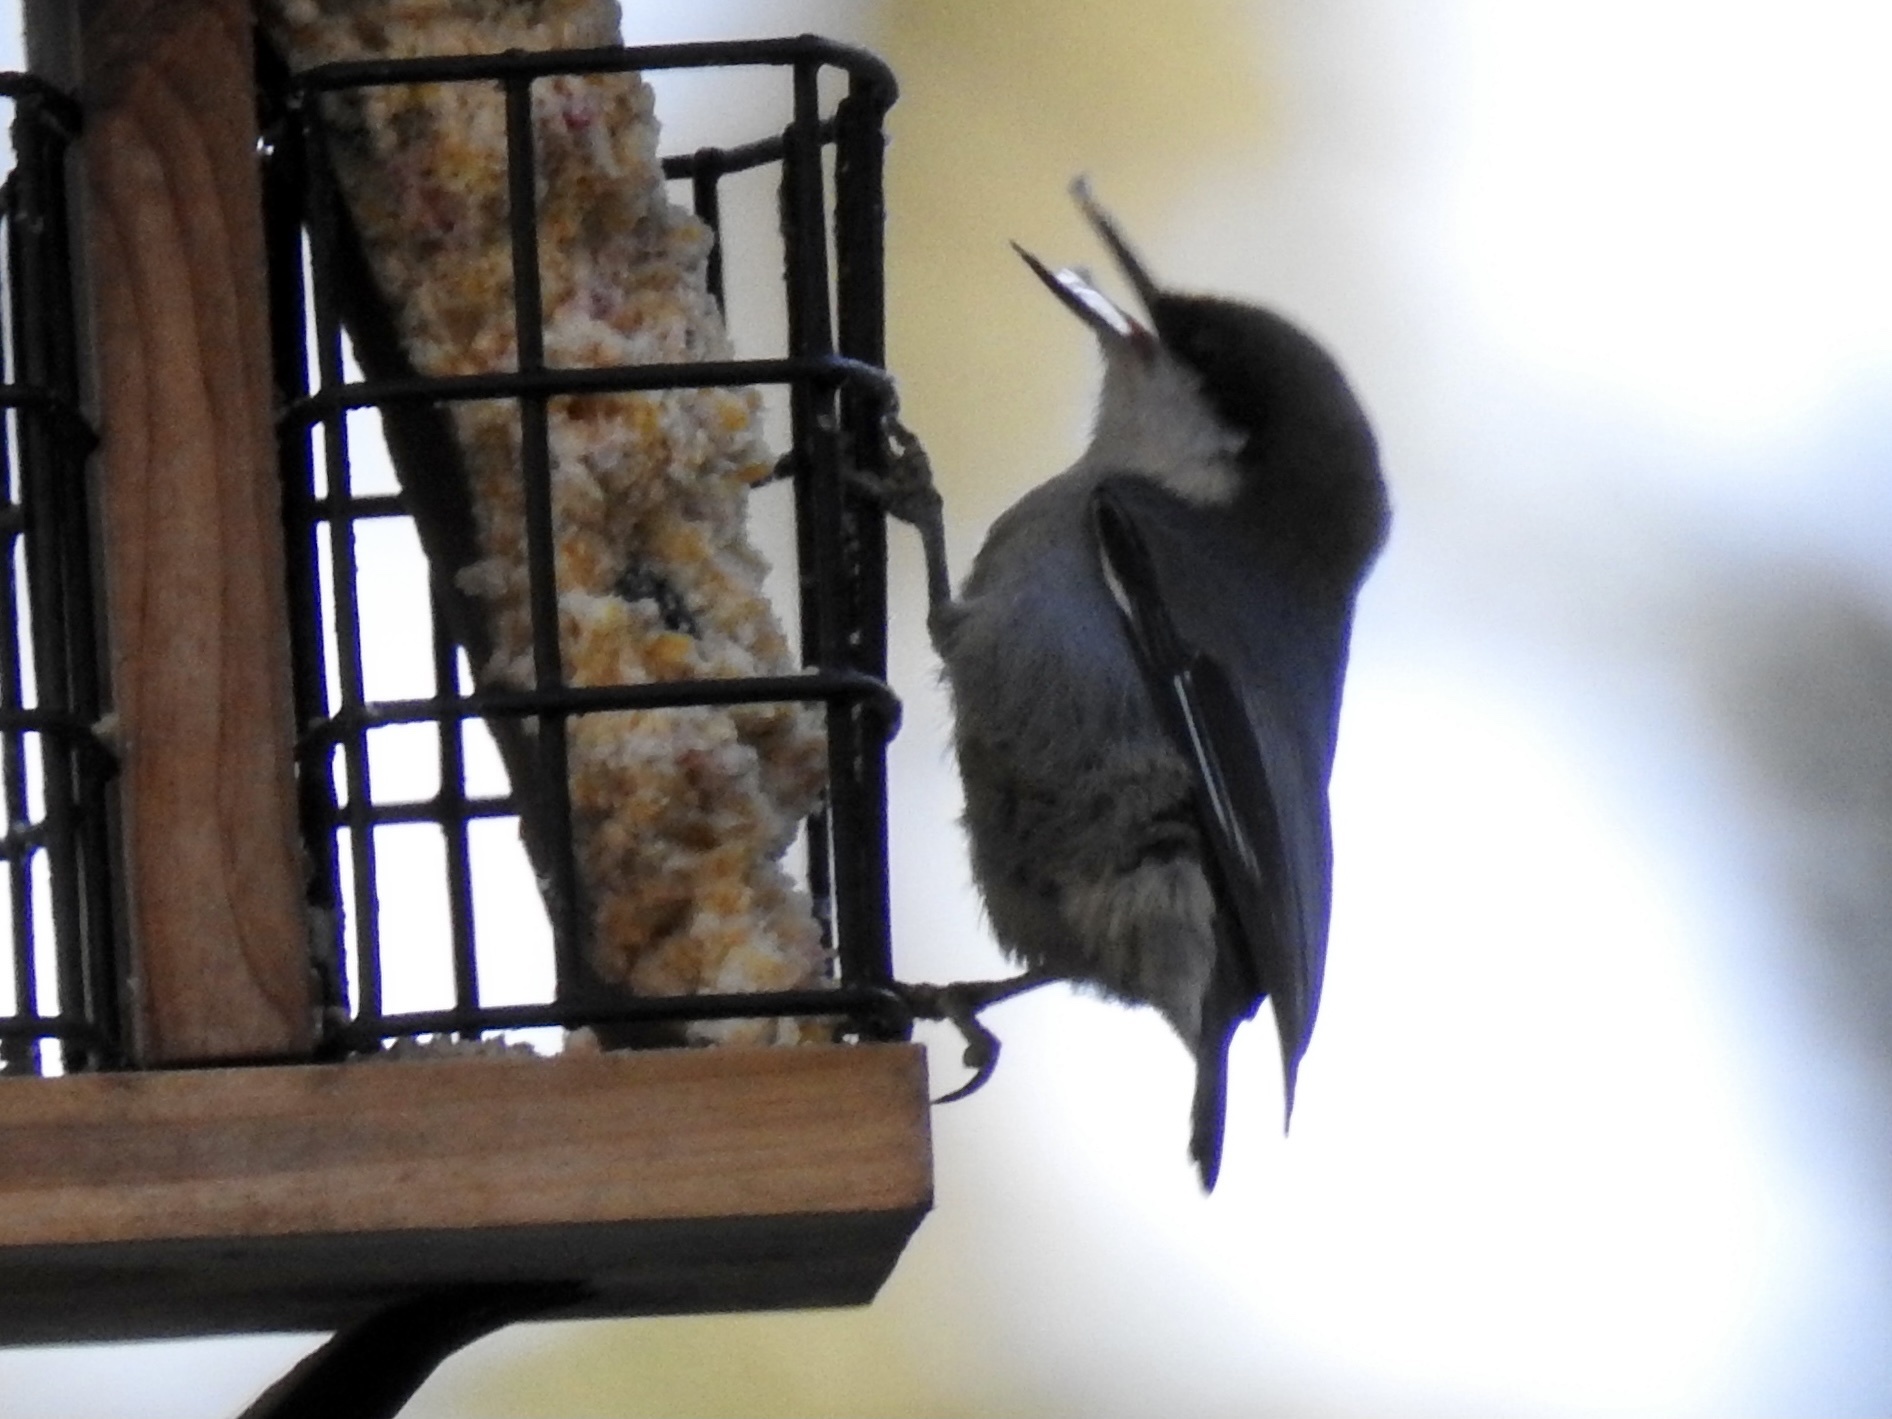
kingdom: Animalia
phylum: Chordata
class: Aves
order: Passeriformes
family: Sittidae
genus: Sitta
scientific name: Sitta pygmaea
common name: Pygmy nuthatch
